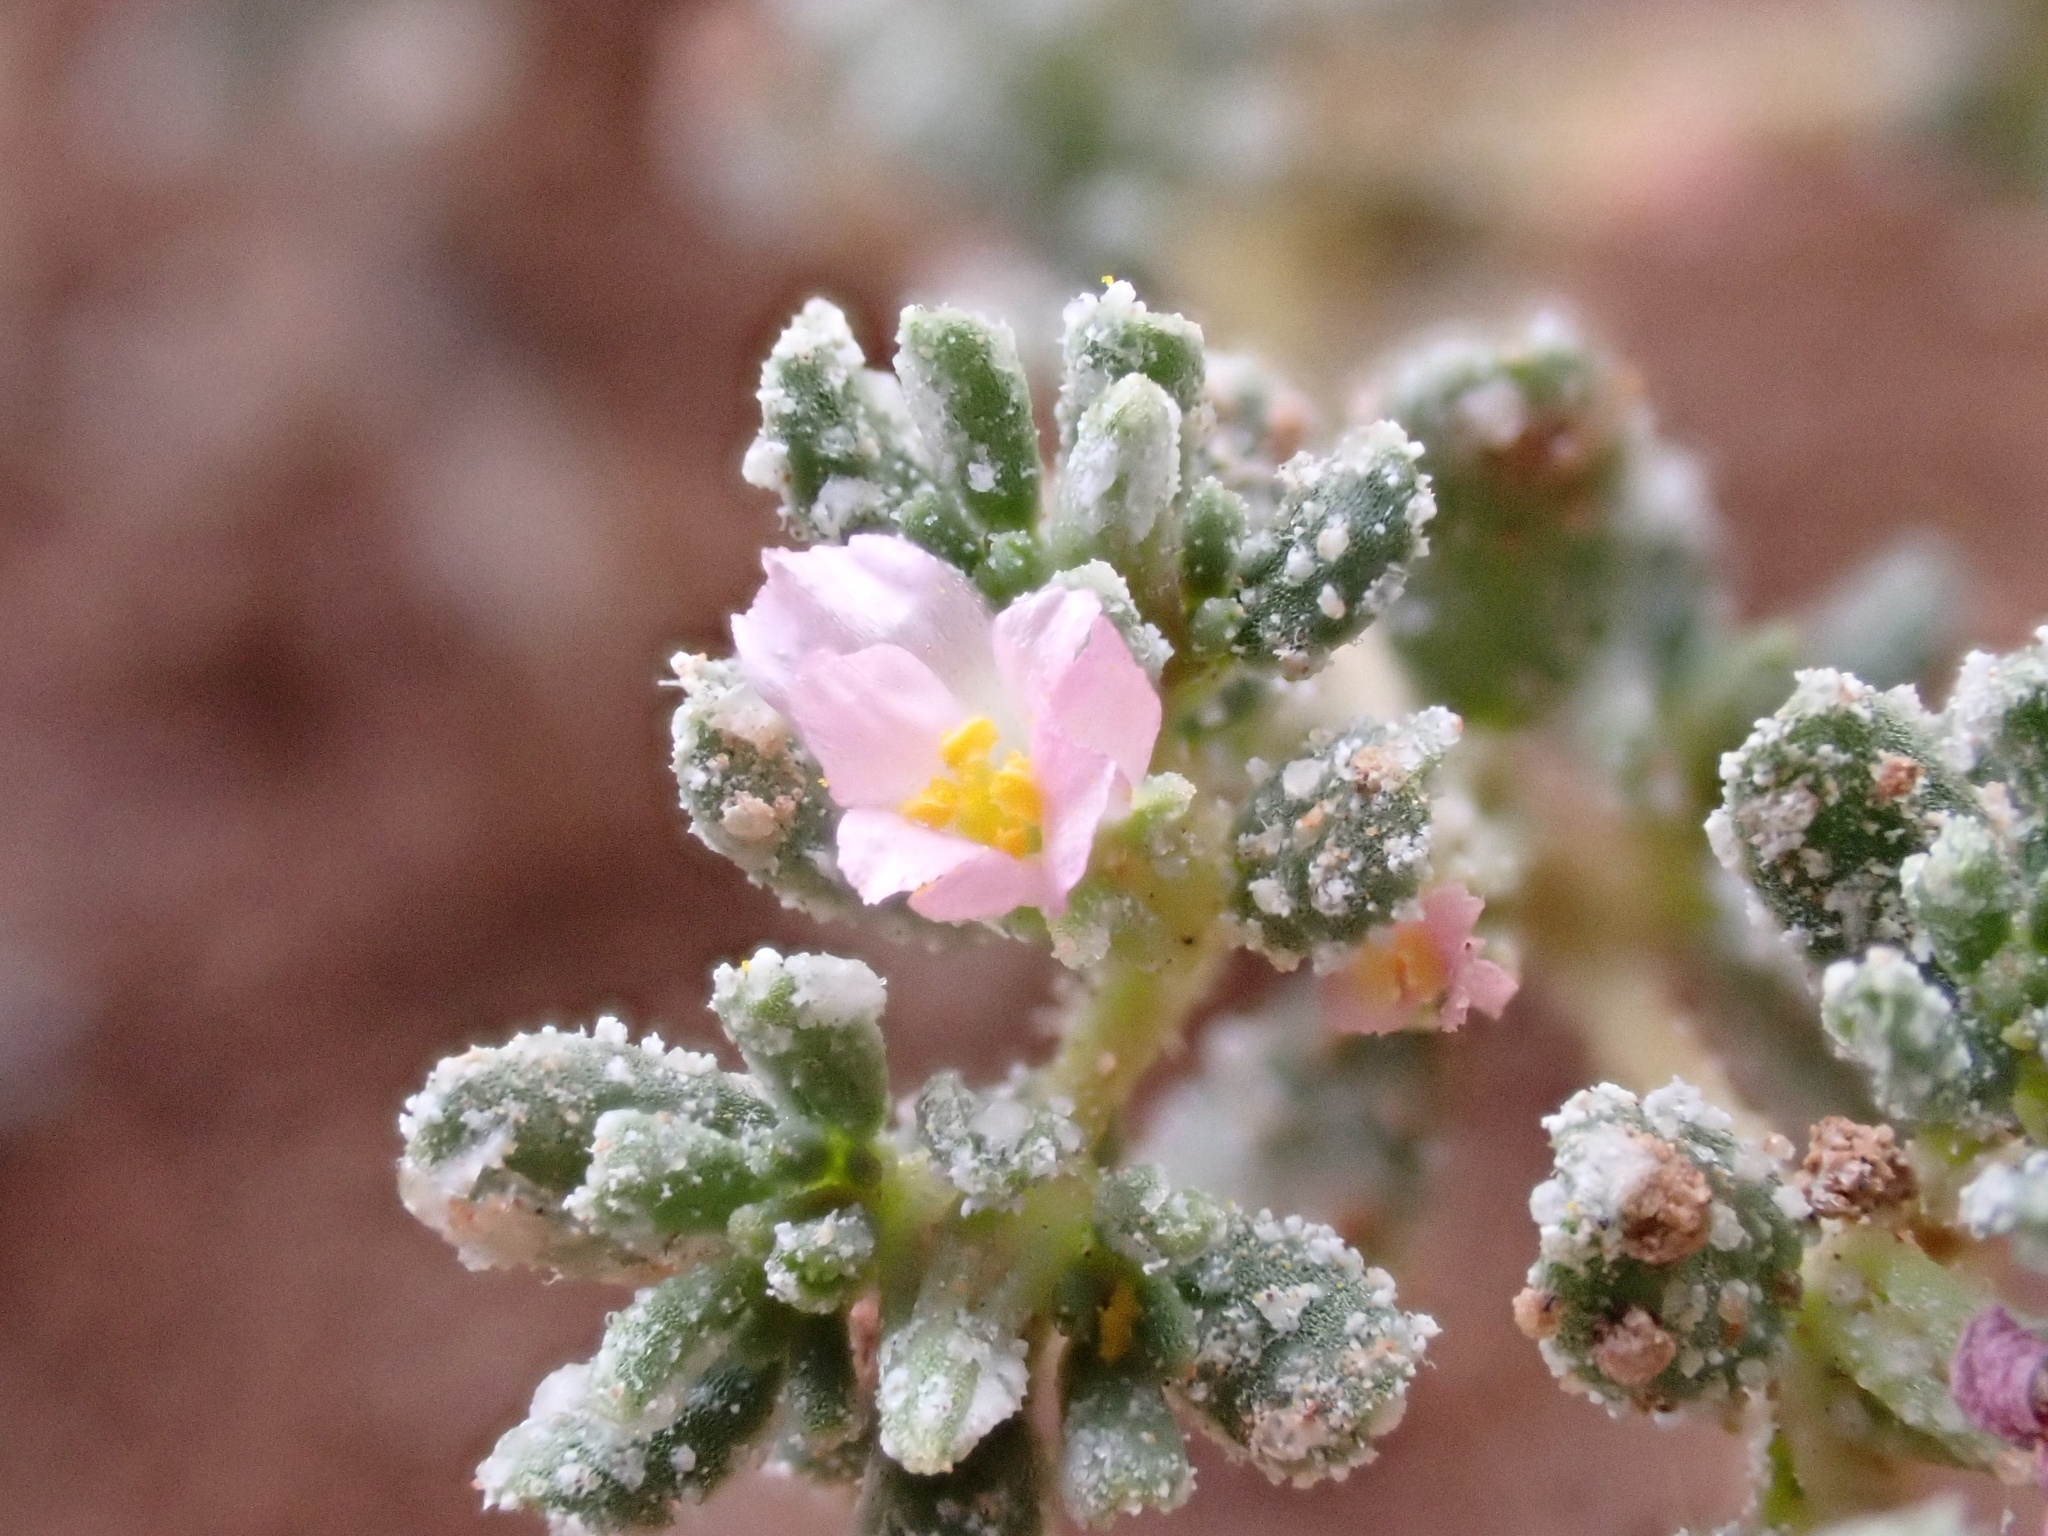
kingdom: Plantae
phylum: Tracheophyta
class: Magnoliopsida
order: Caryophyllales
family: Frankeniaceae
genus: Frankenia
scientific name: Frankenia pulverulenta
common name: European seaheath
